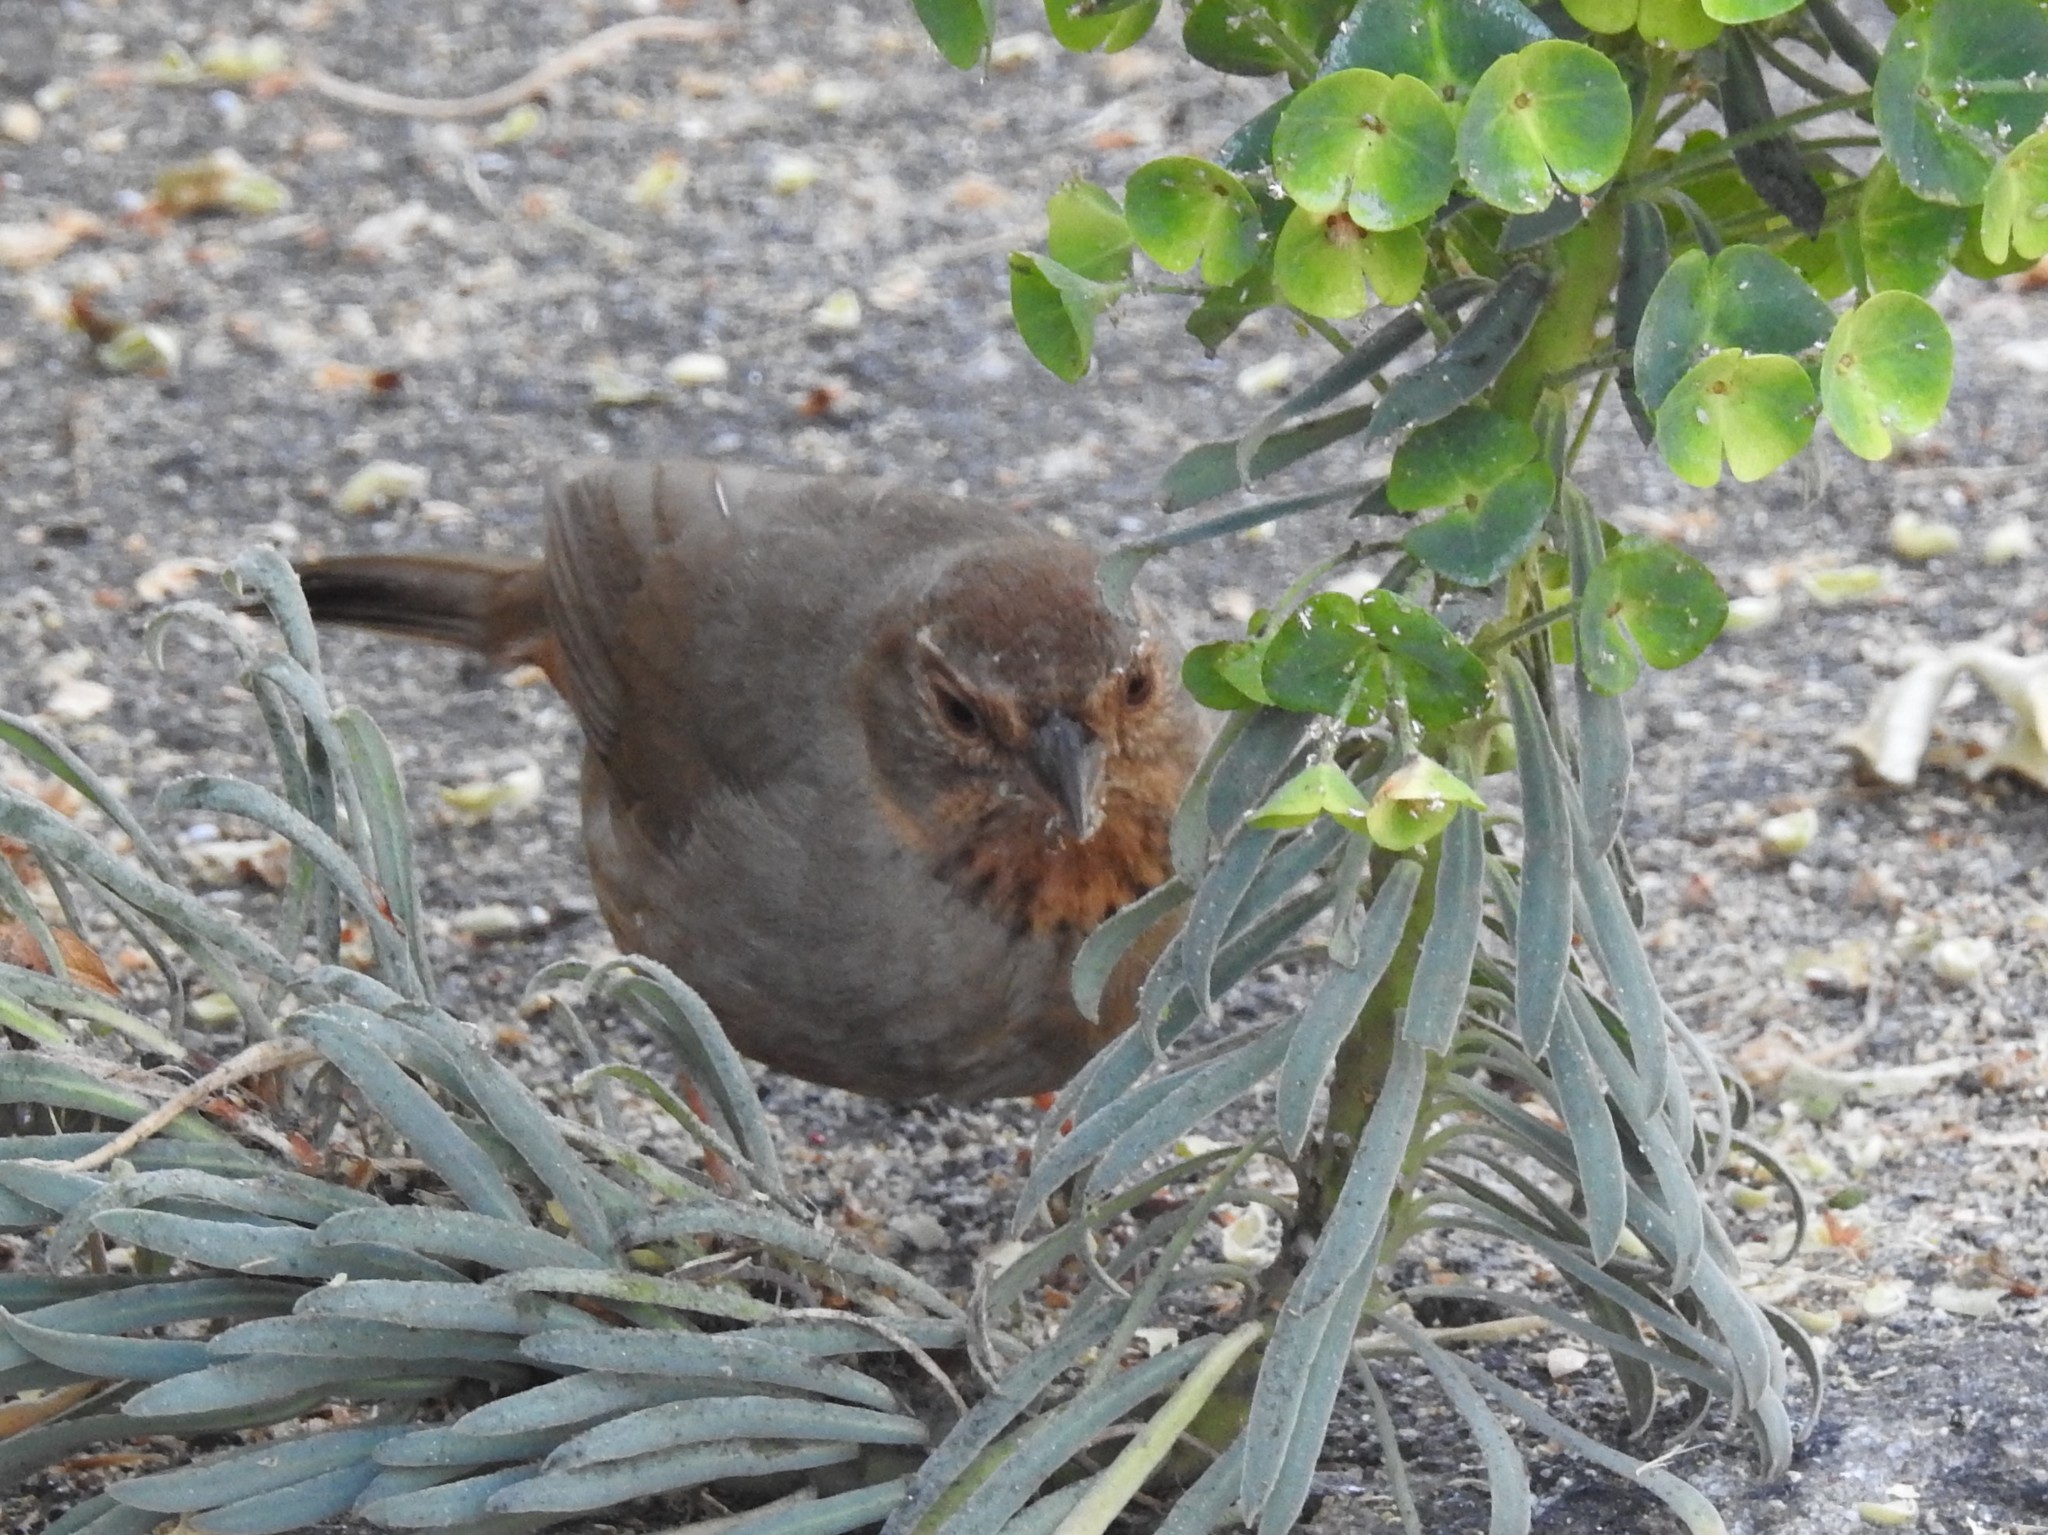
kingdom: Animalia
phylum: Chordata
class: Aves
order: Passeriformes
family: Passerellidae
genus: Melozone
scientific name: Melozone crissalis
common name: California towhee
